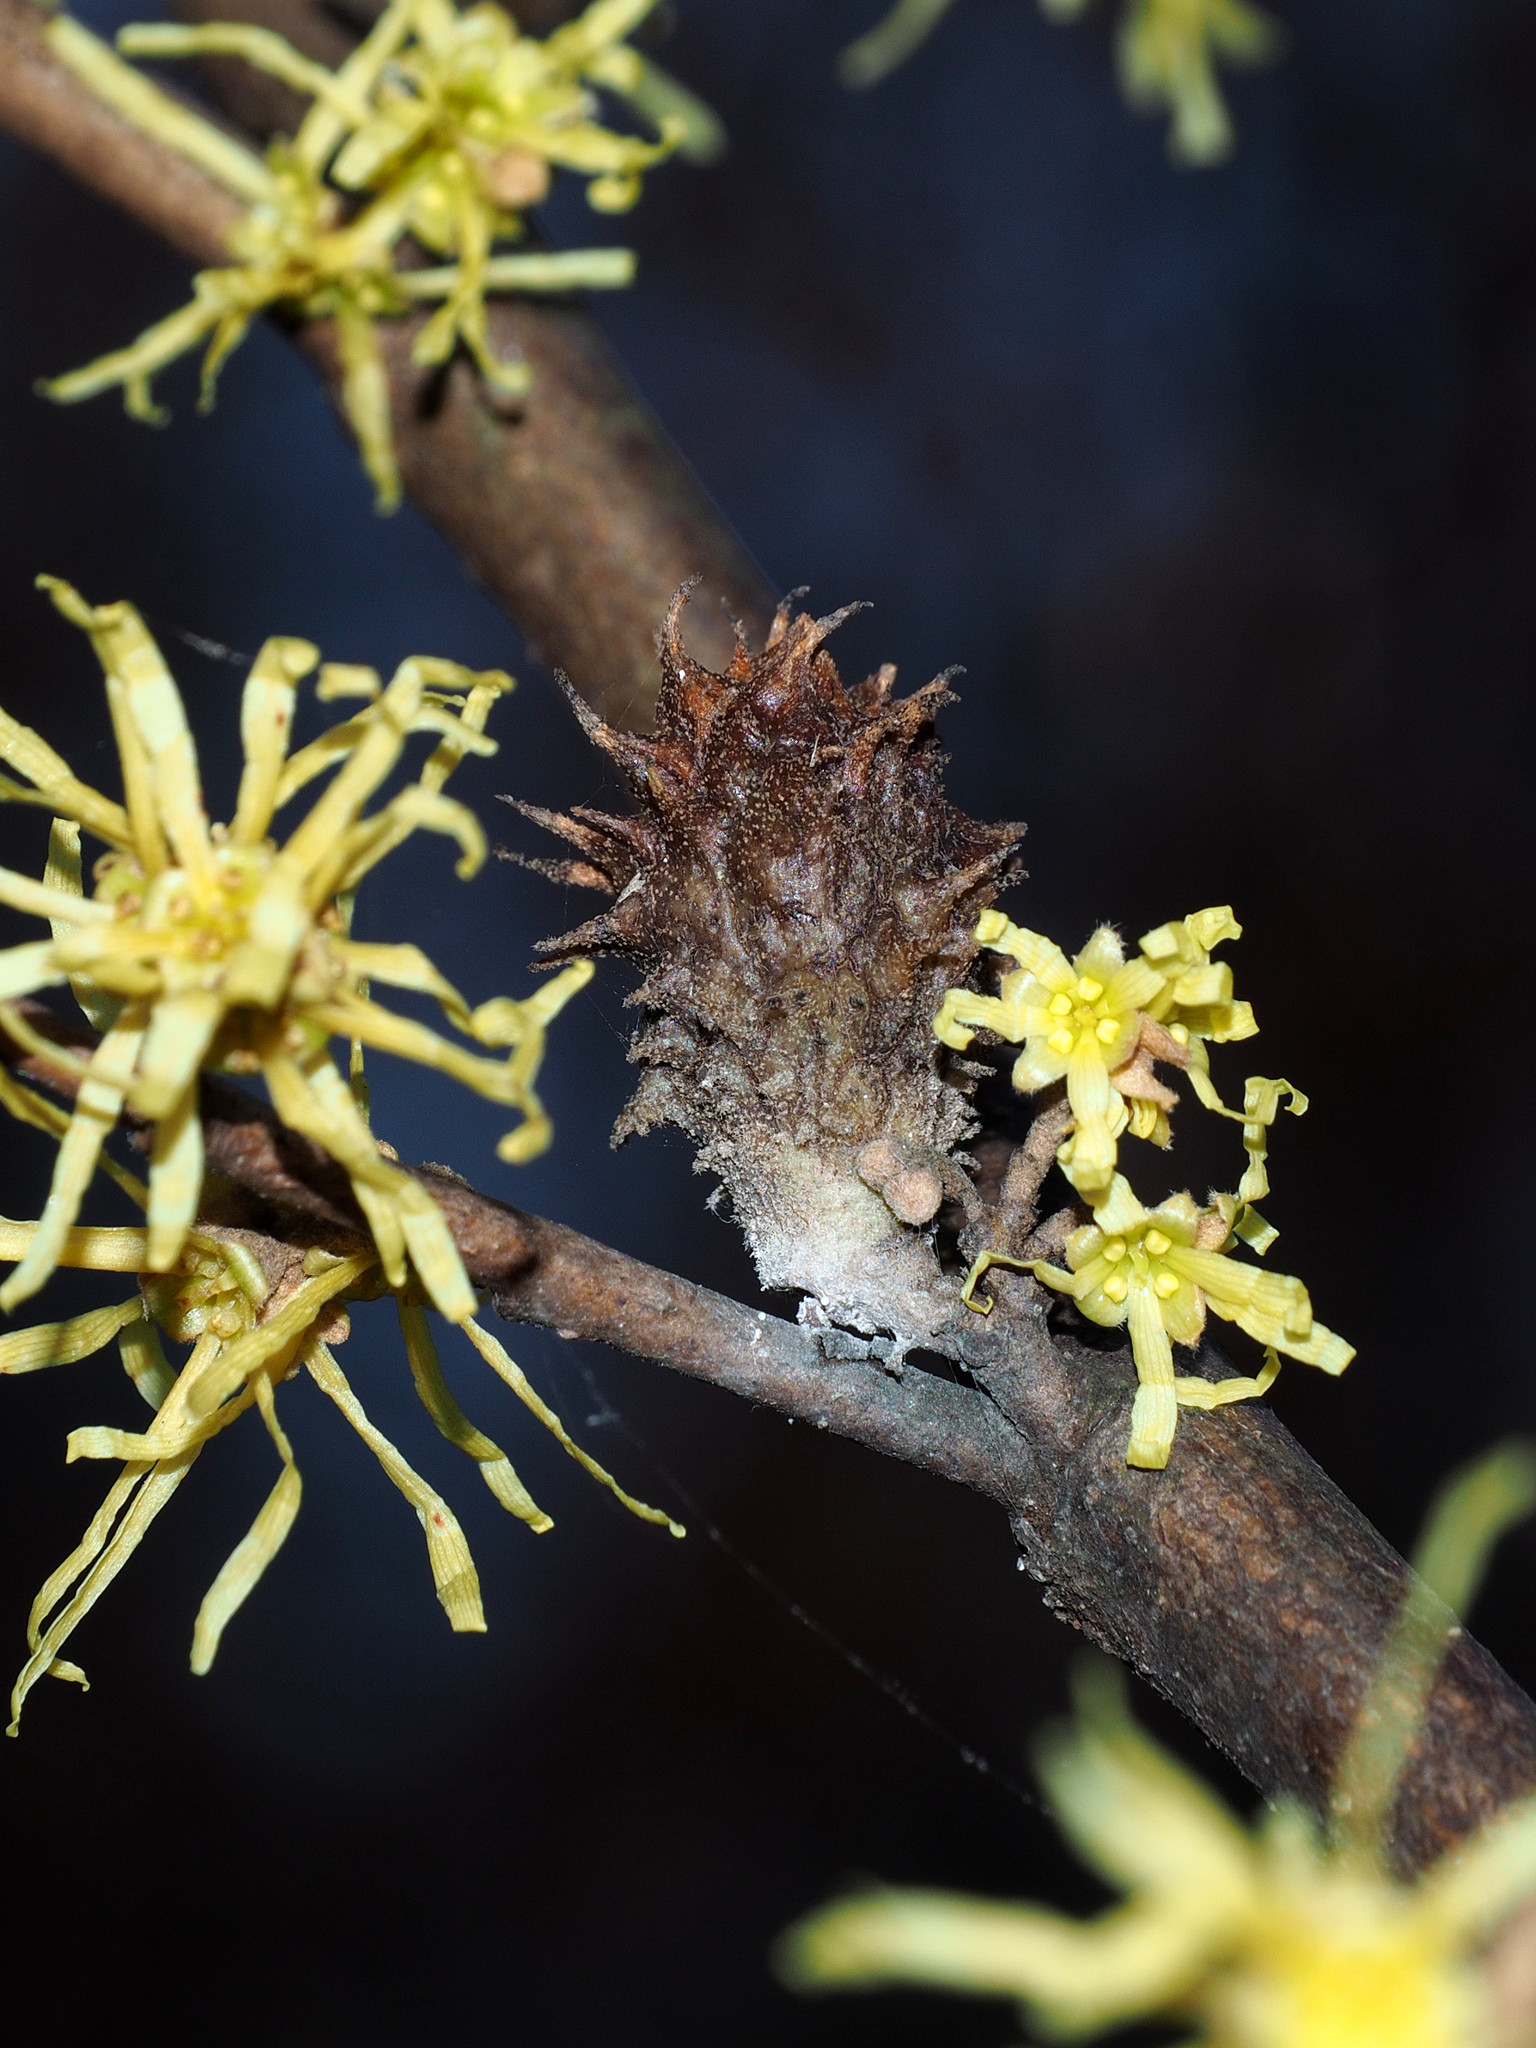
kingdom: Animalia
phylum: Arthropoda
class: Insecta
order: Hemiptera
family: Aphididae
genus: Hamamelistes
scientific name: Hamamelistes spinosus
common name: Witch hazel gall aphid
